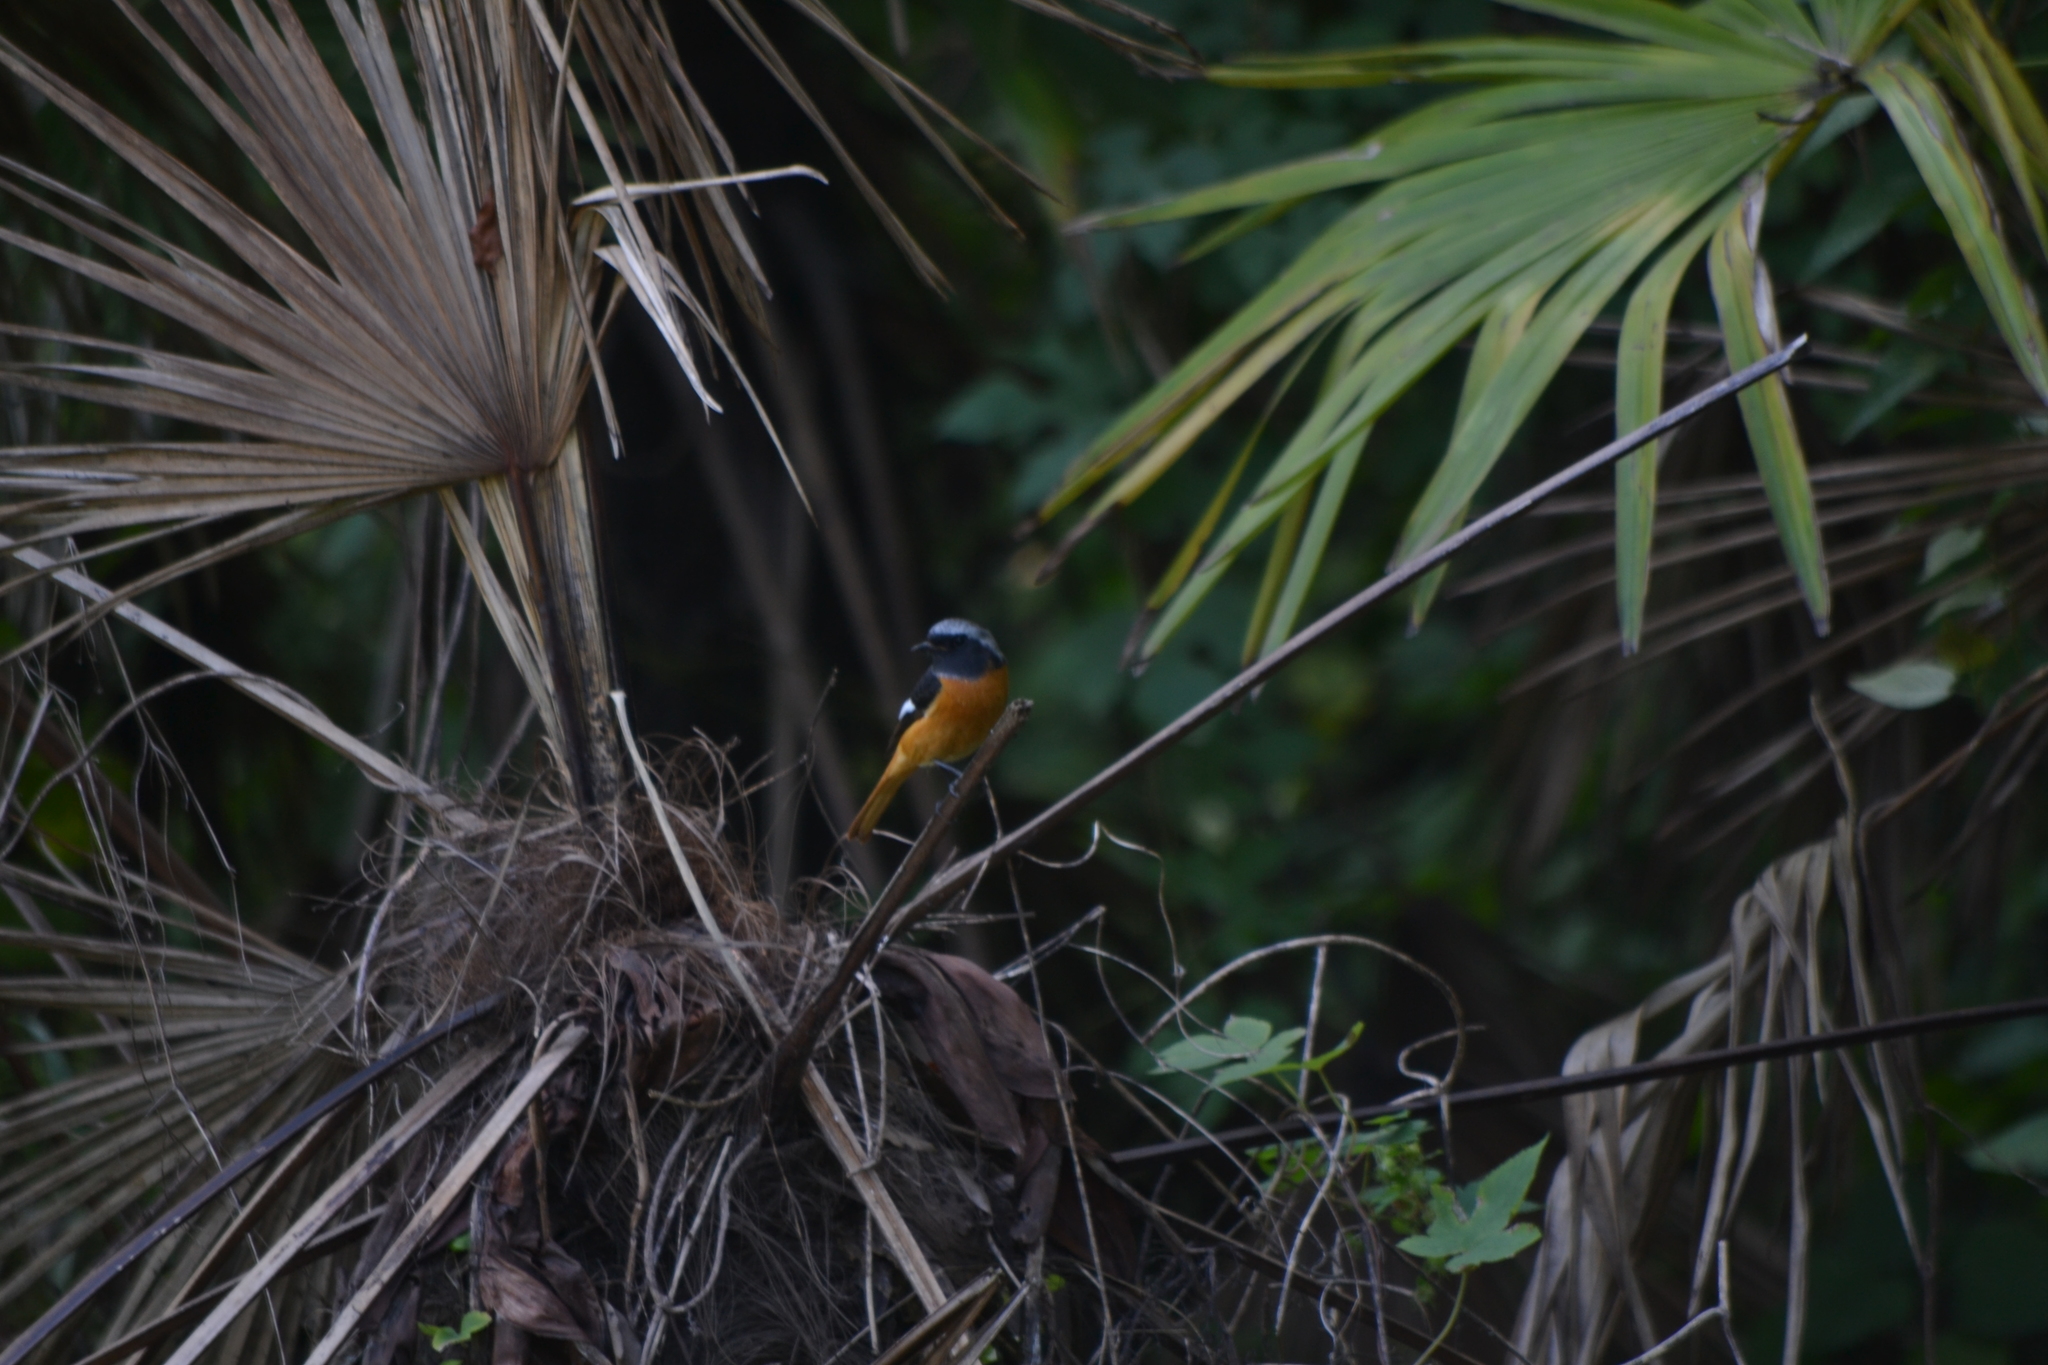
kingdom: Animalia
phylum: Chordata
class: Aves
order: Passeriformes
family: Muscicapidae
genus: Phoenicurus
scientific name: Phoenicurus auroreus
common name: Daurian redstart
